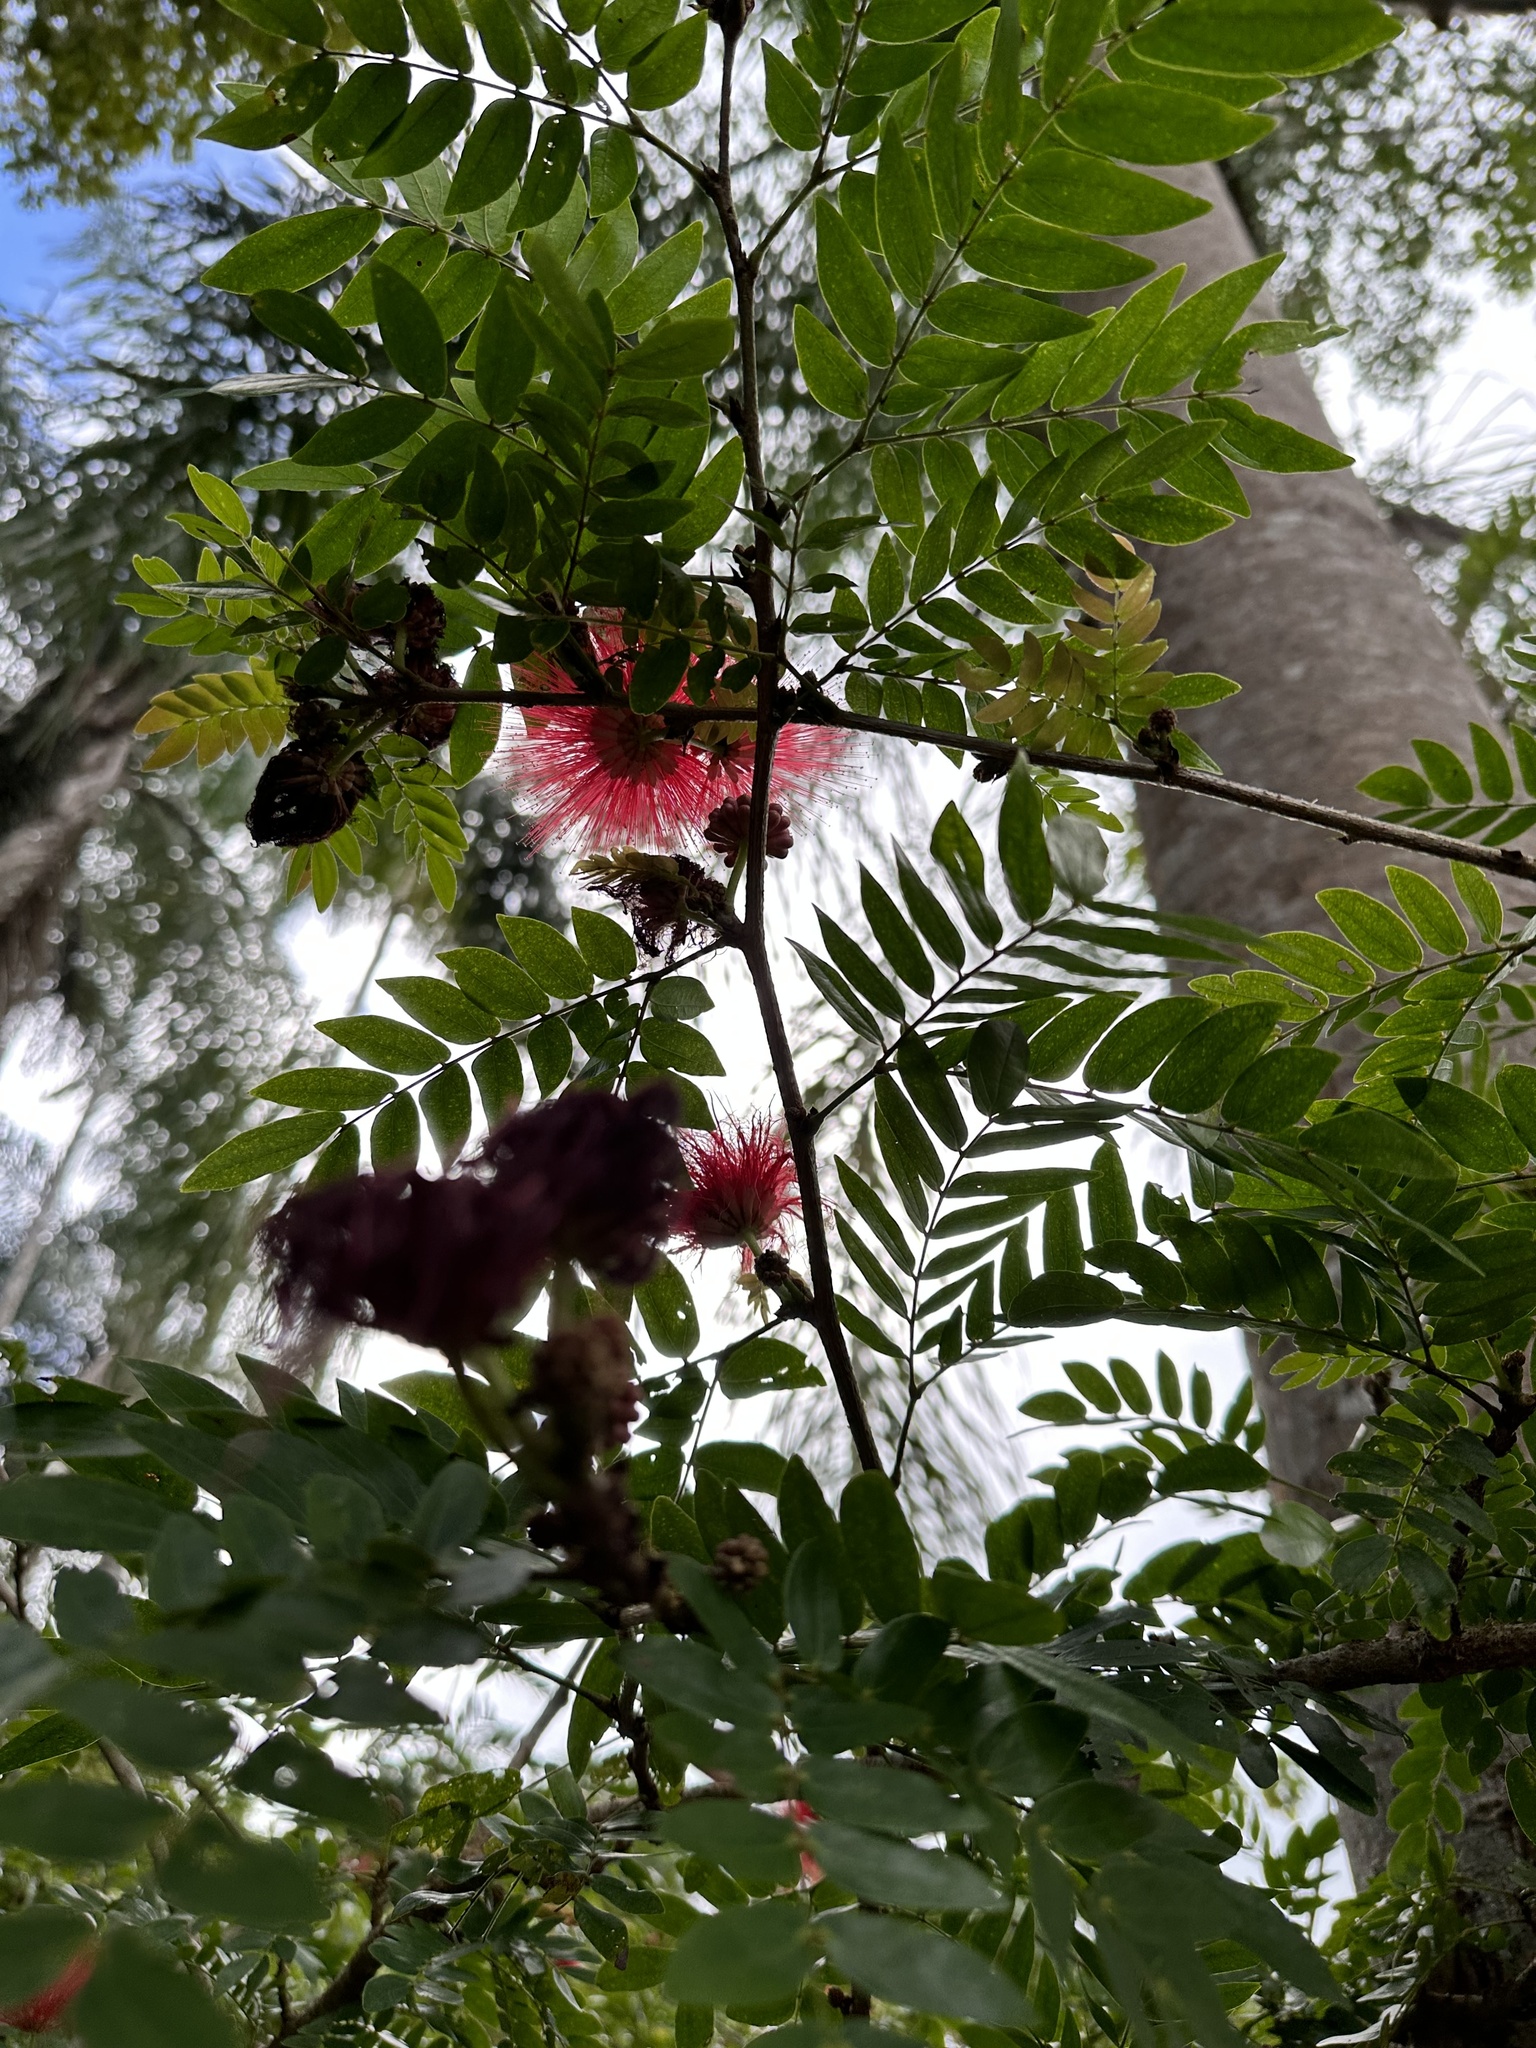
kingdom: Plantae
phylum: Tracheophyta
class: Magnoliopsida
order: Fabales
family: Fabaceae
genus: Calliandra
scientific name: Calliandra haematocephala
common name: Blood red tassel flower
